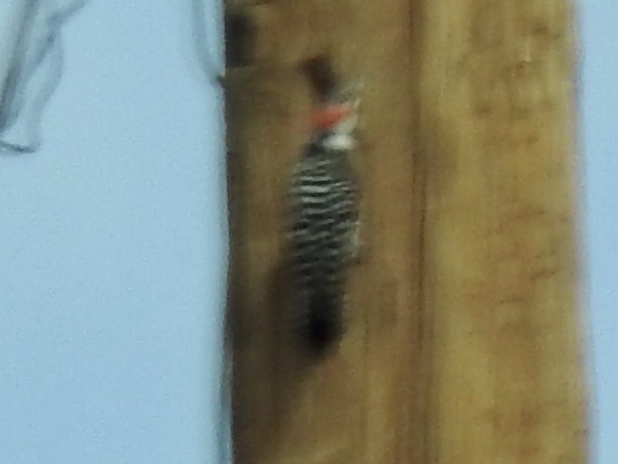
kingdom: Animalia
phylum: Chordata
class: Aves
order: Piciformes
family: Picidae
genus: Dryobates
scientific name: Dryobates scalaris
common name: Ladder-backed woodpecker
